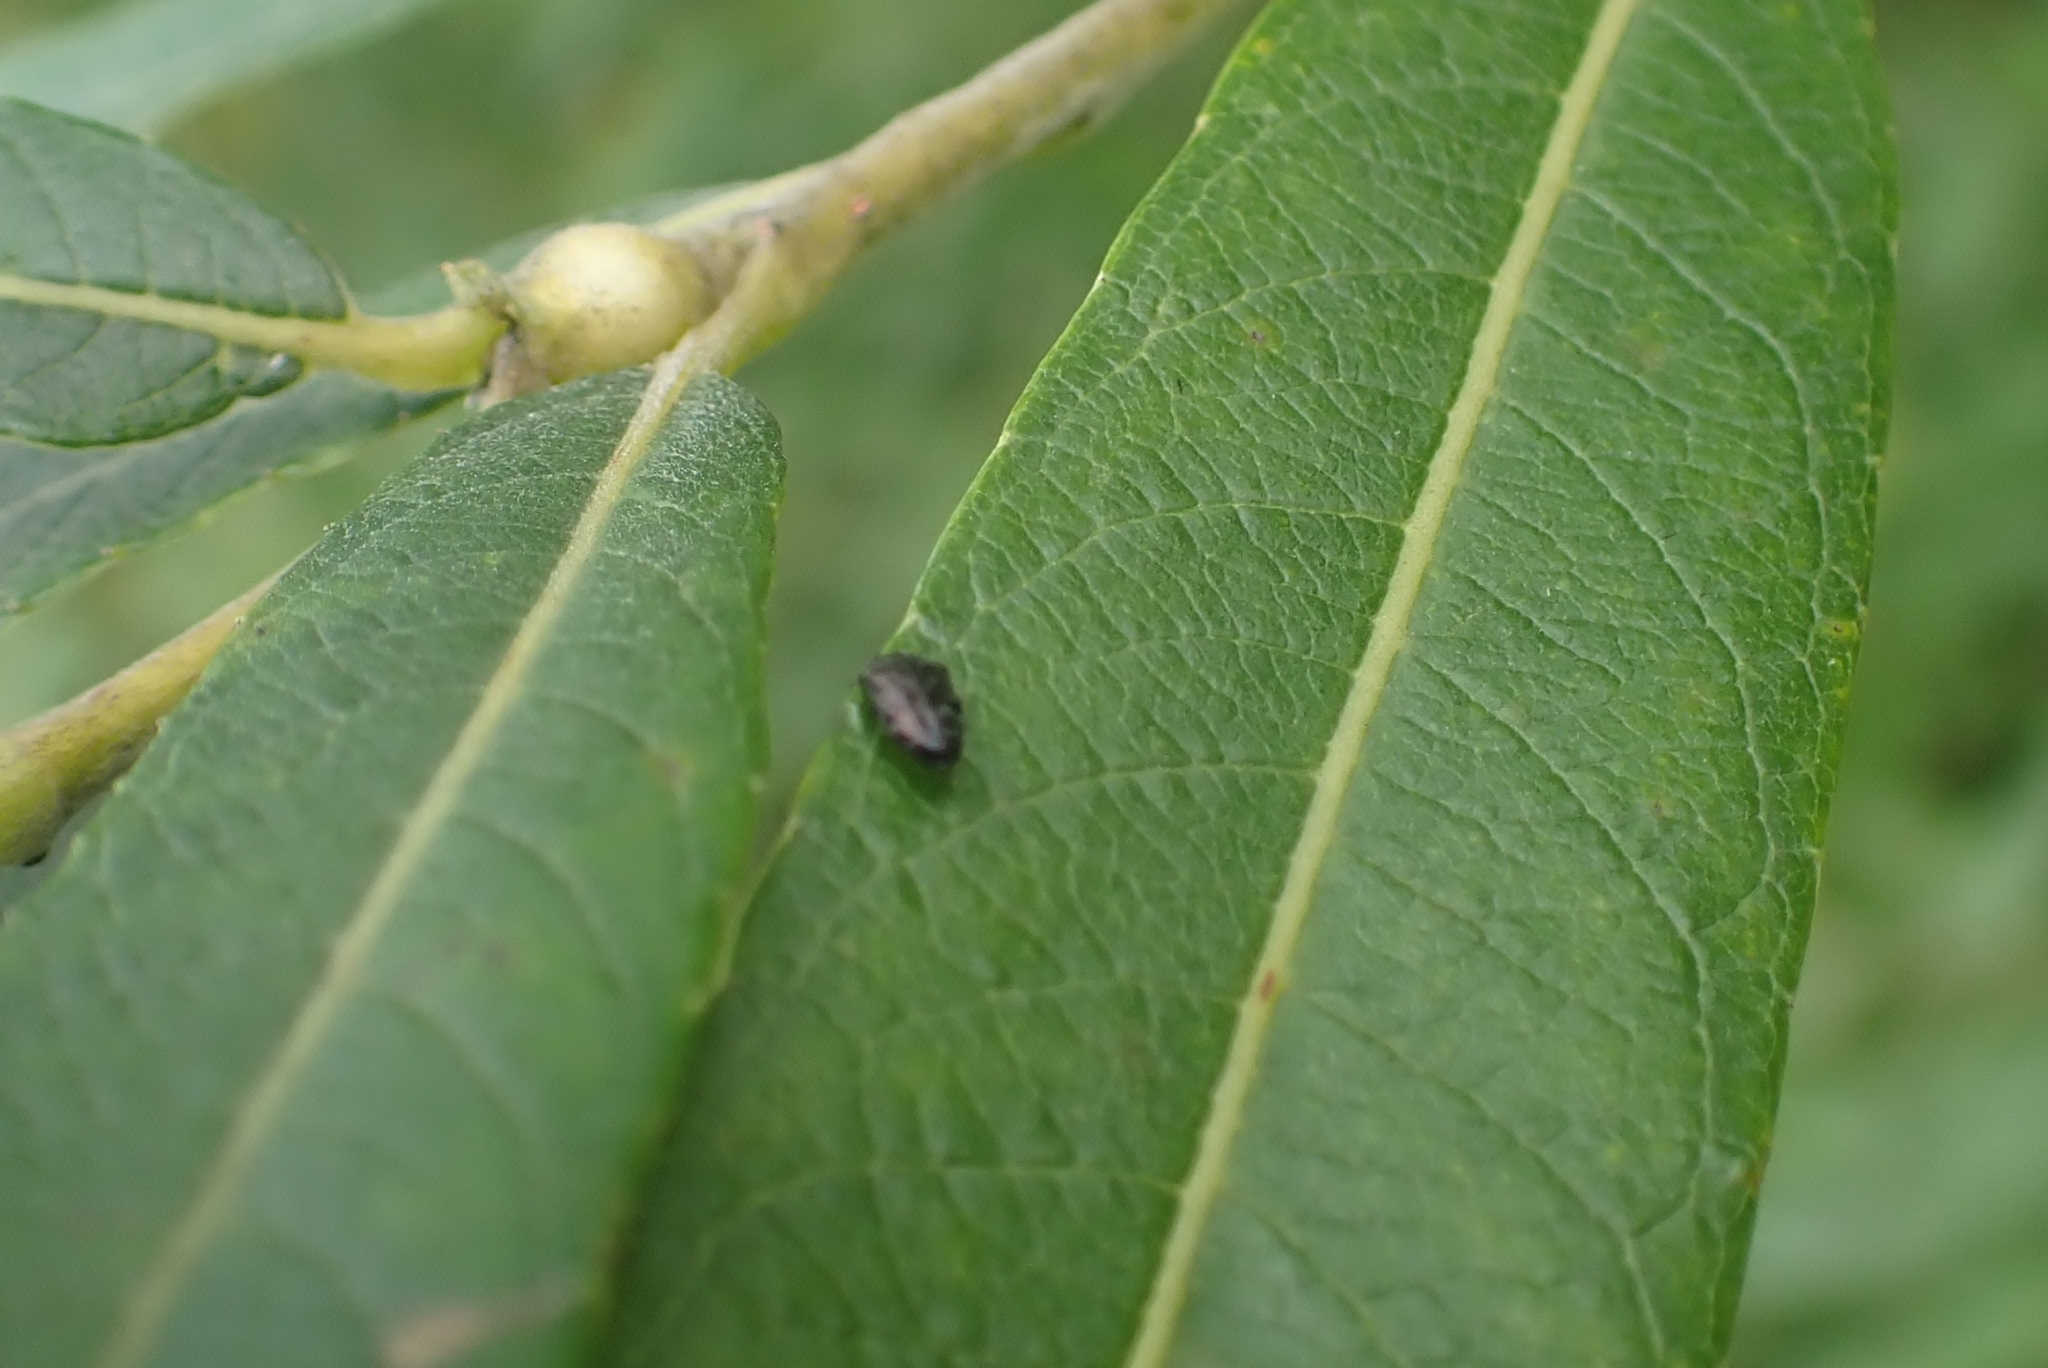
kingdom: Animalia
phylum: Arthropoda
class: Insecta
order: Coleoptera
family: Buprestidae
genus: Trachys
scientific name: Trachys minutus
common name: Metallic wood-boring beetle
